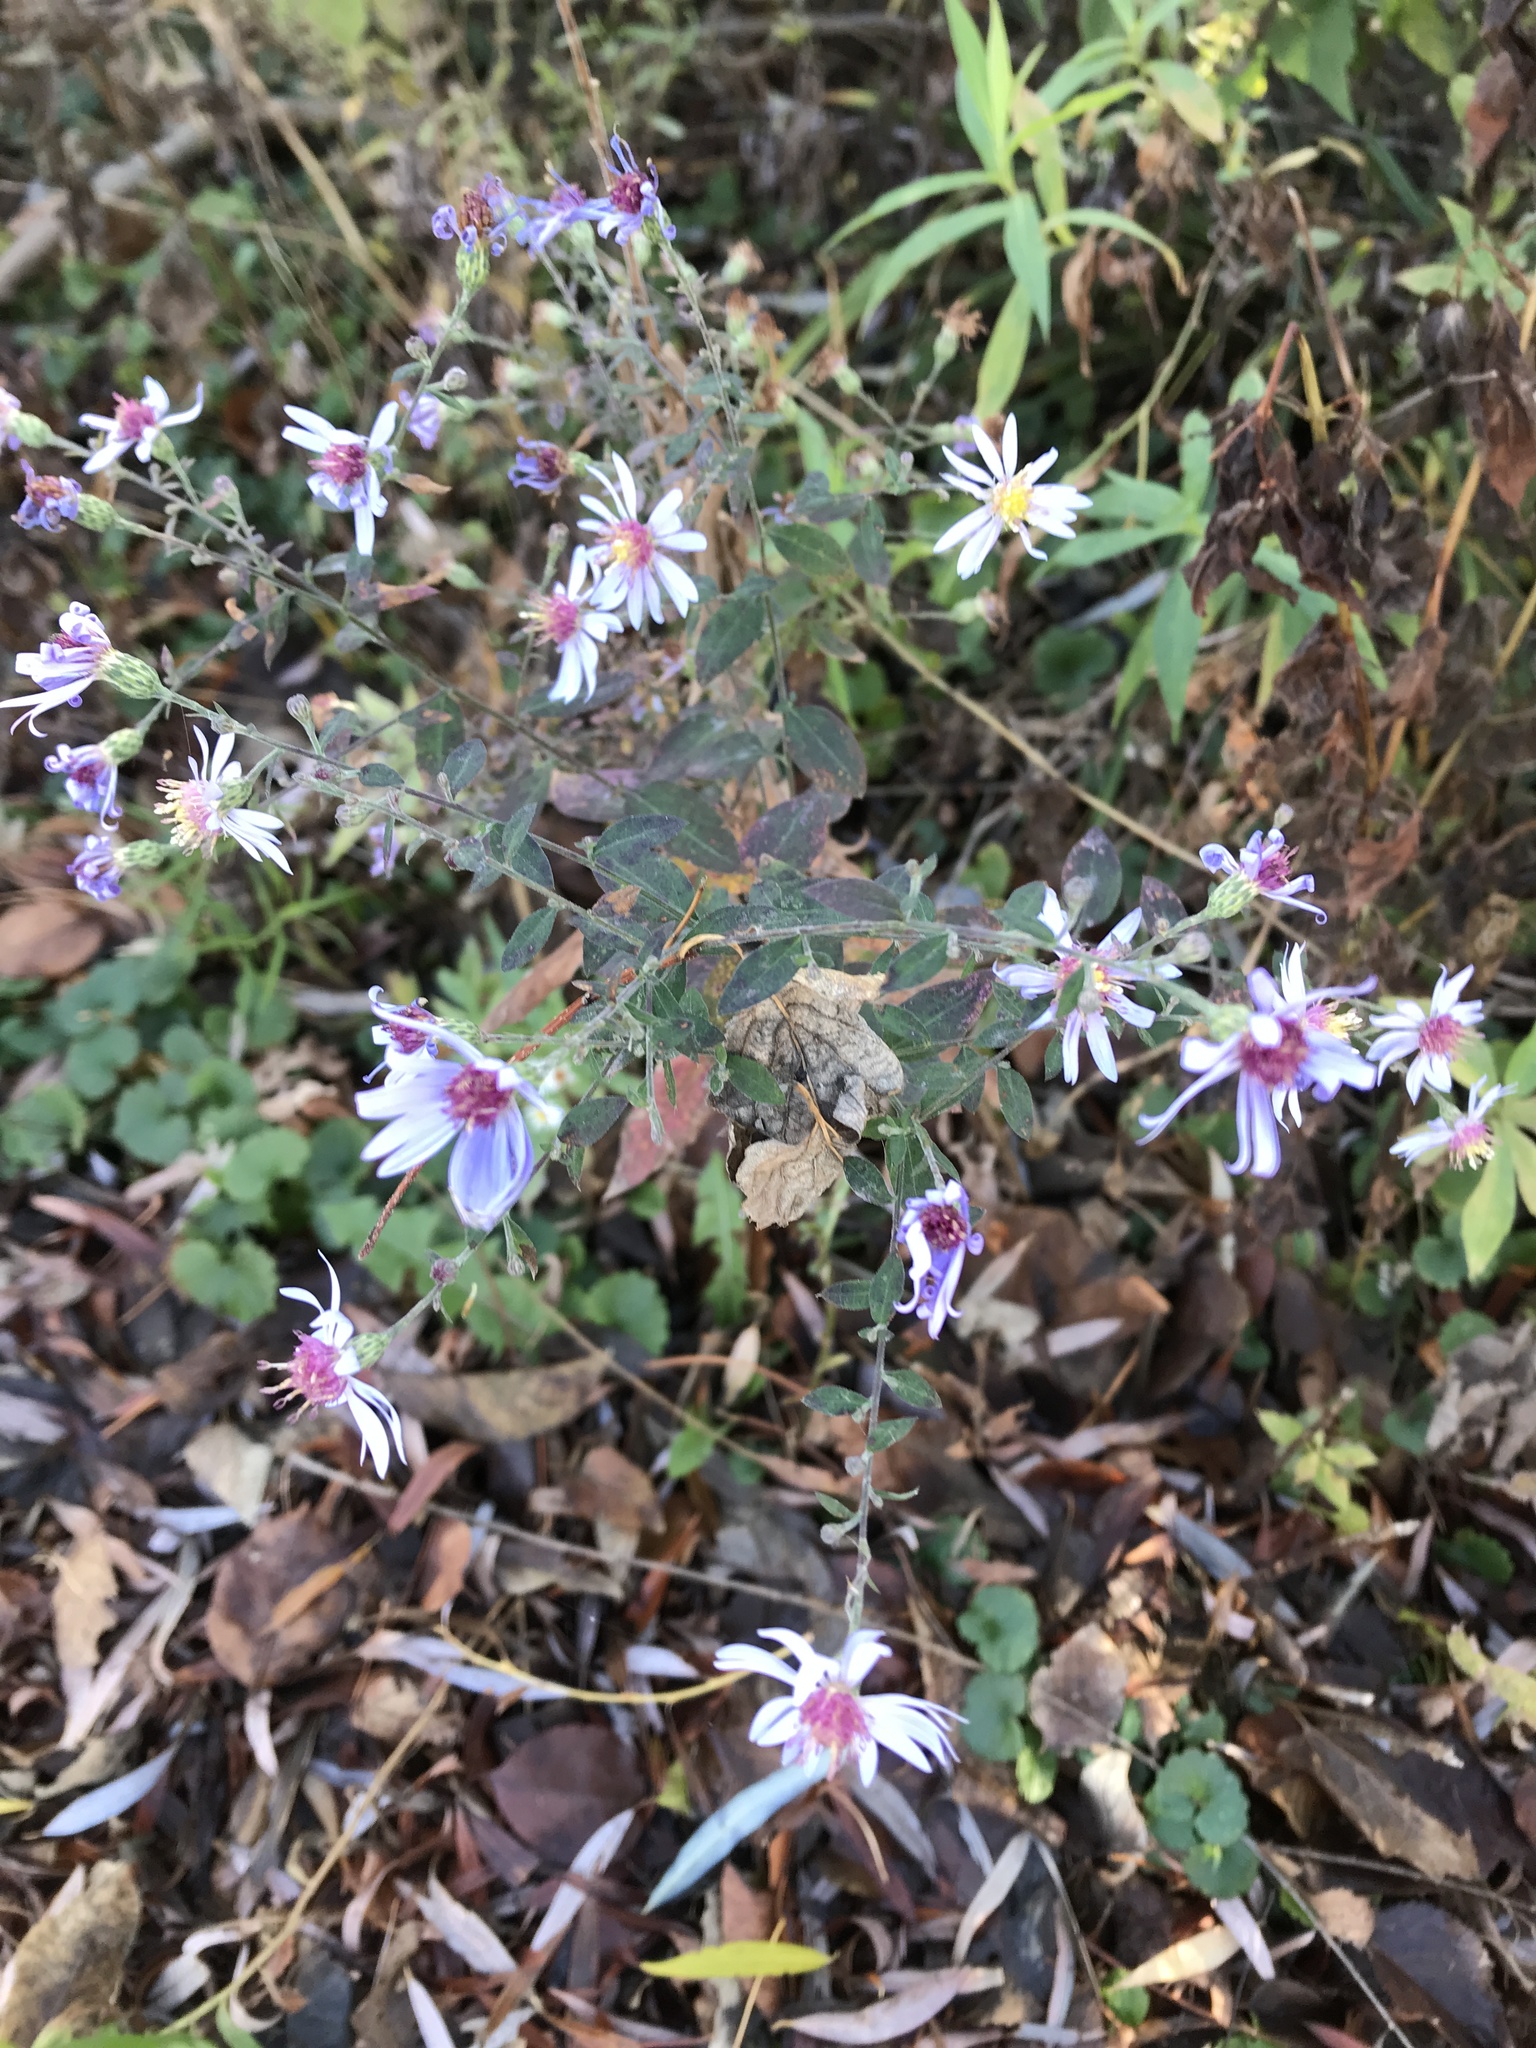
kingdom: Plantae
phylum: Tracheophyta
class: Magnoliopsida
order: Asterales
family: Asteraceae
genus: Symphyotrichum
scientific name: Symphyotrichum novae-angliae
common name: Michaelmas daisy
